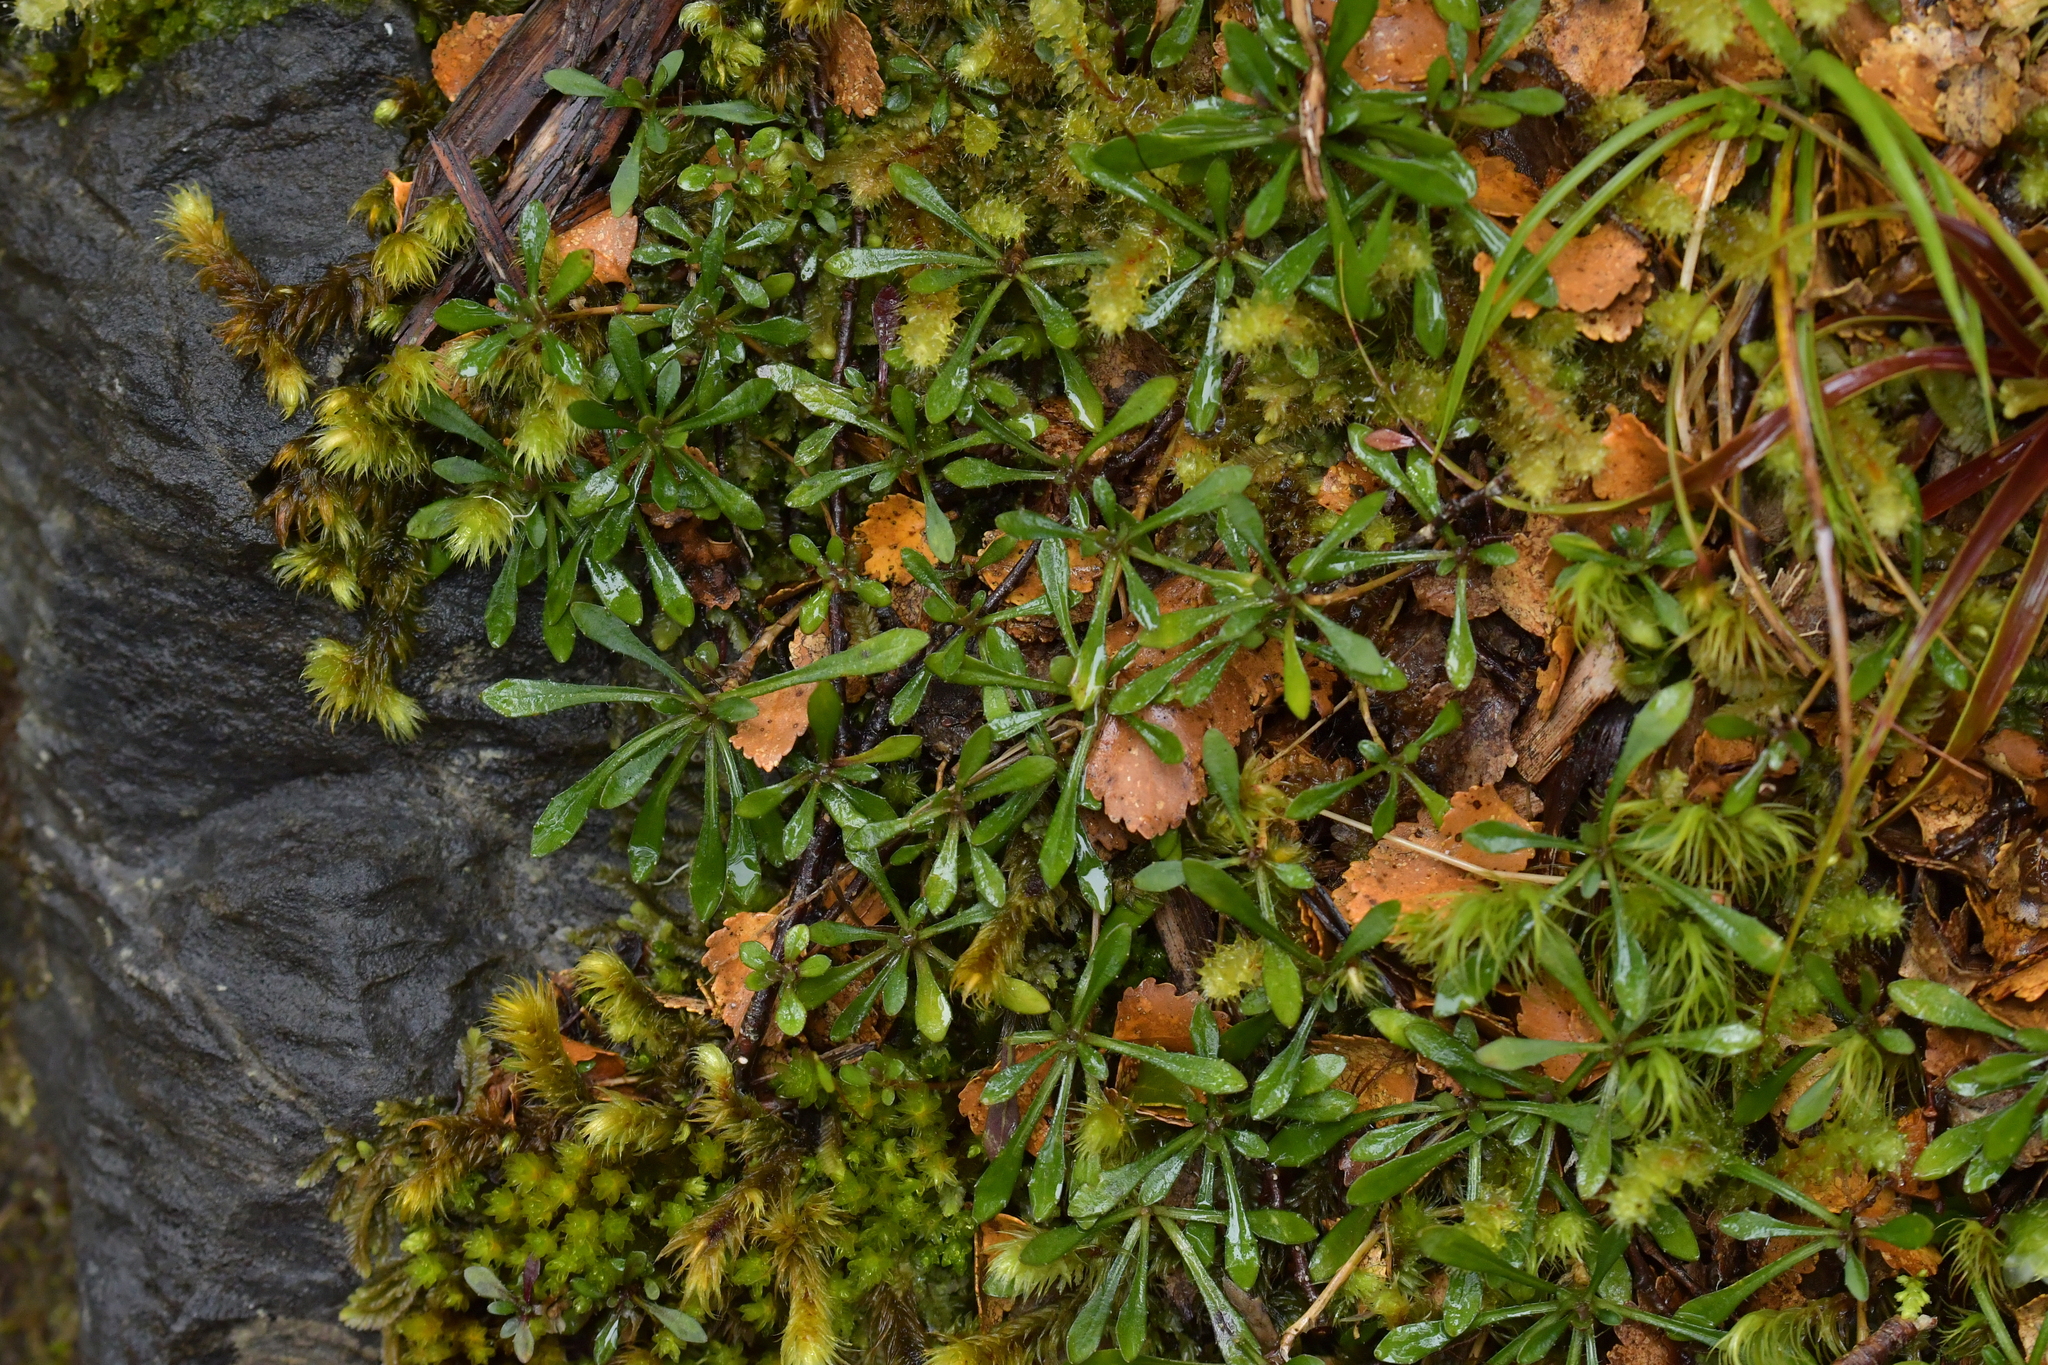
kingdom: Plantae
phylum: Tracheophyta
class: Magnoliopsida
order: Asterales
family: Campanulaceae
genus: Wahlenbergia
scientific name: Wahlenbergia albomarginata
